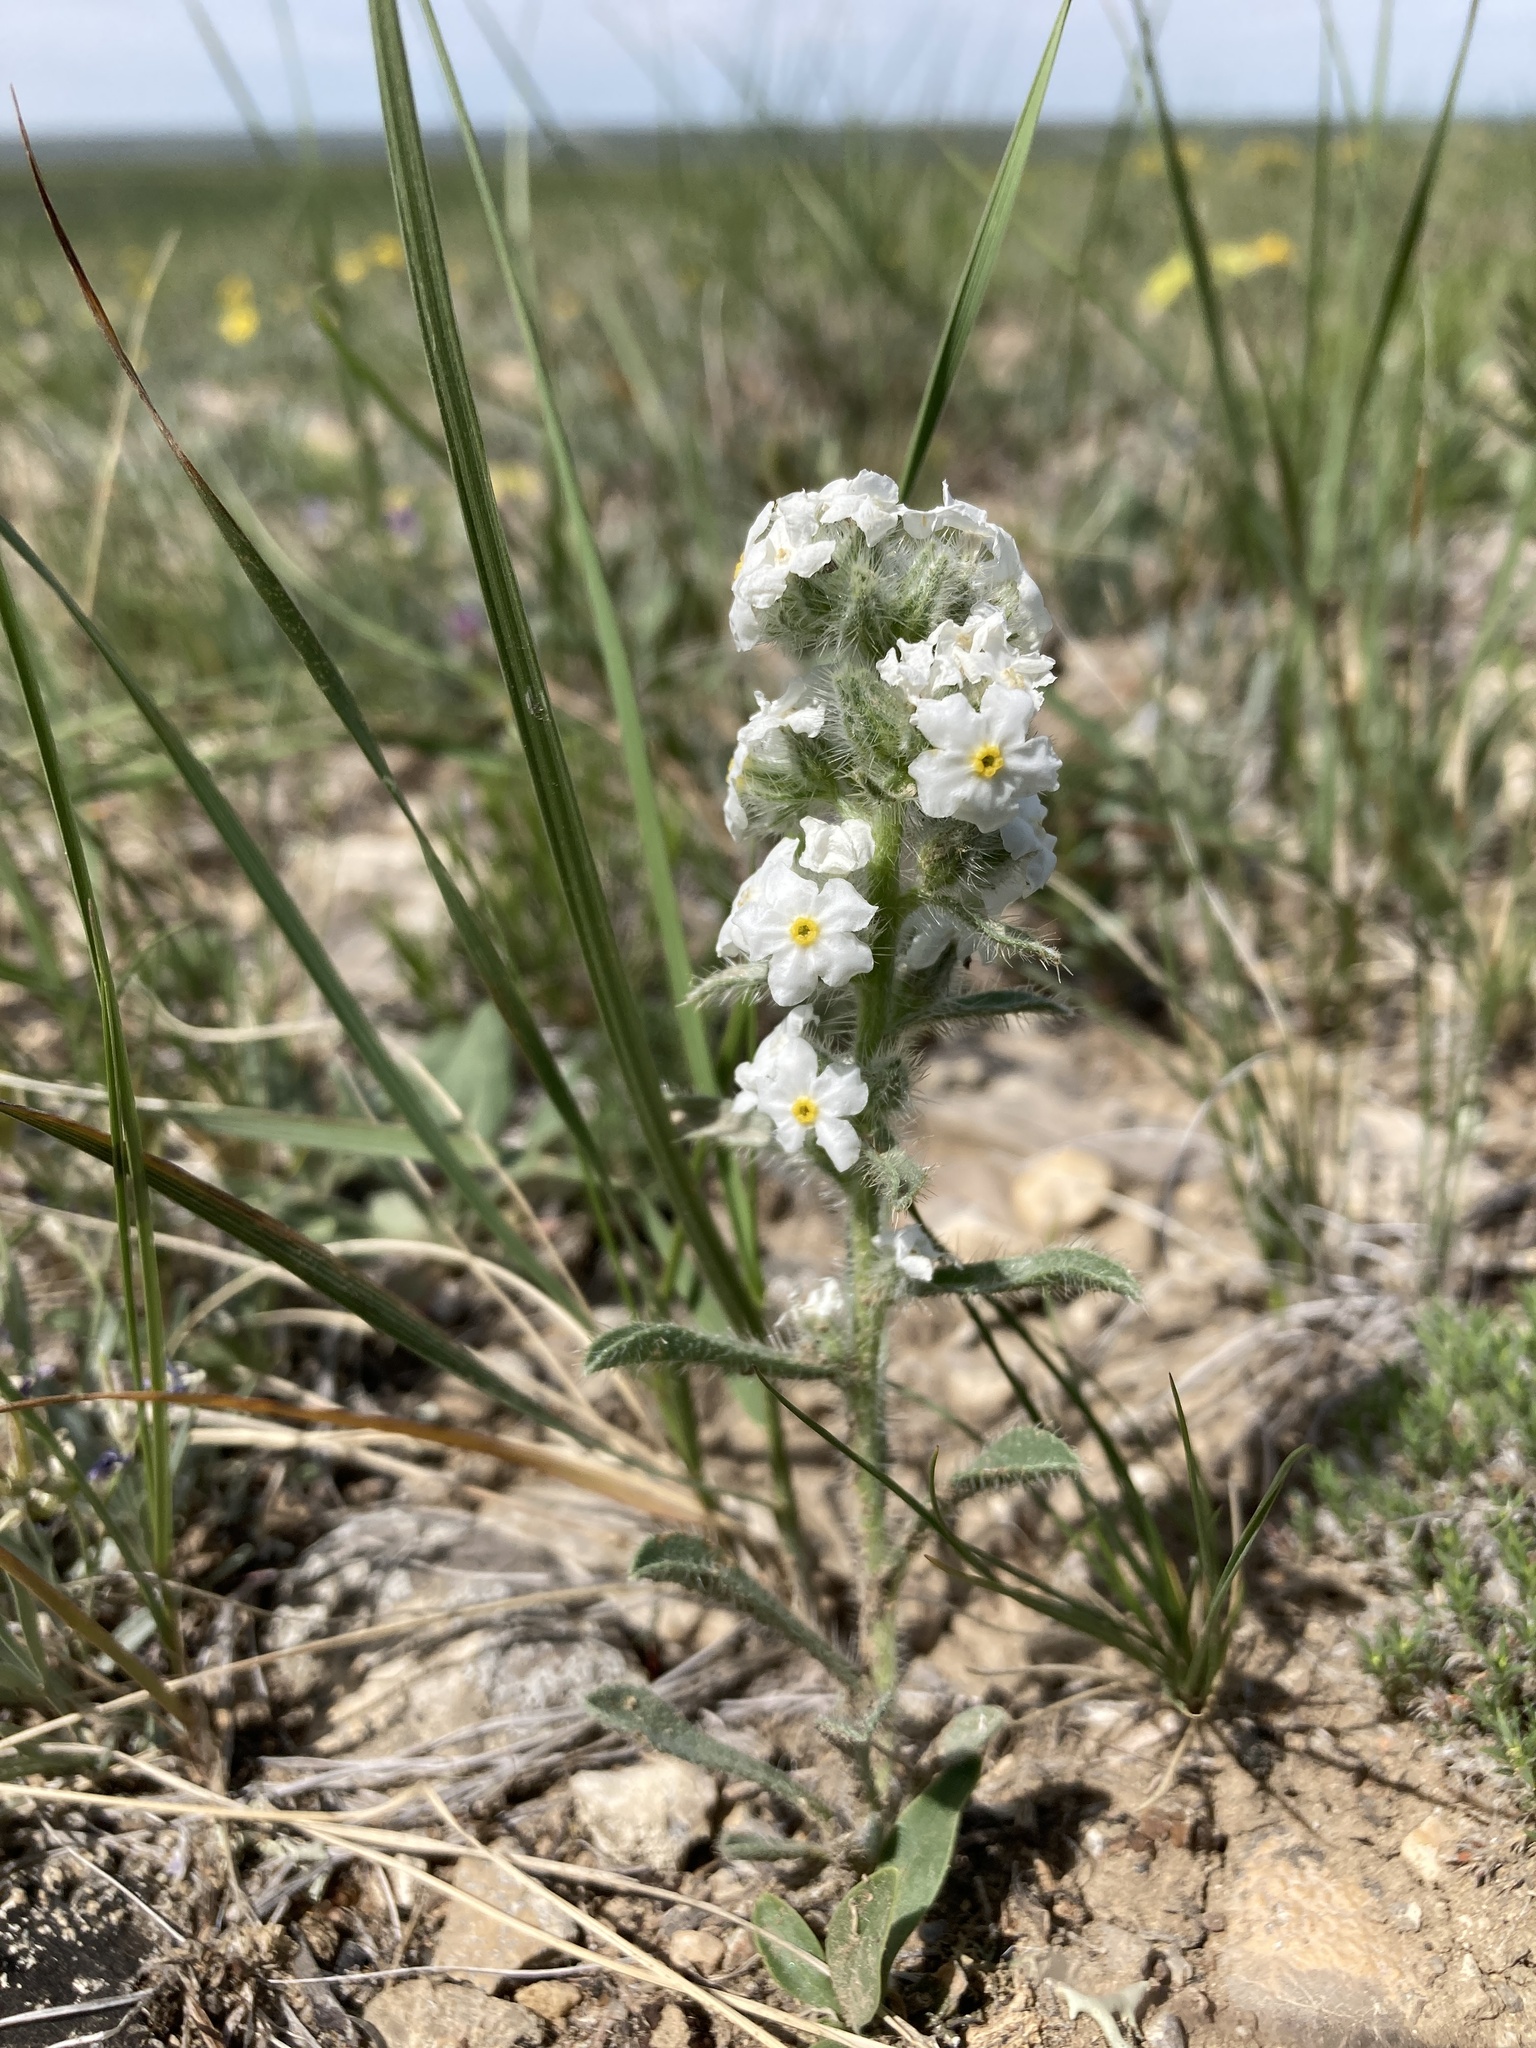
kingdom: Plantae
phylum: Tracheophyta
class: Magnoliopsida
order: Boraginales
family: Boraginaceae
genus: Oreocarya
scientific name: Oreocarya glomerata
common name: Macoun's cryptantha
